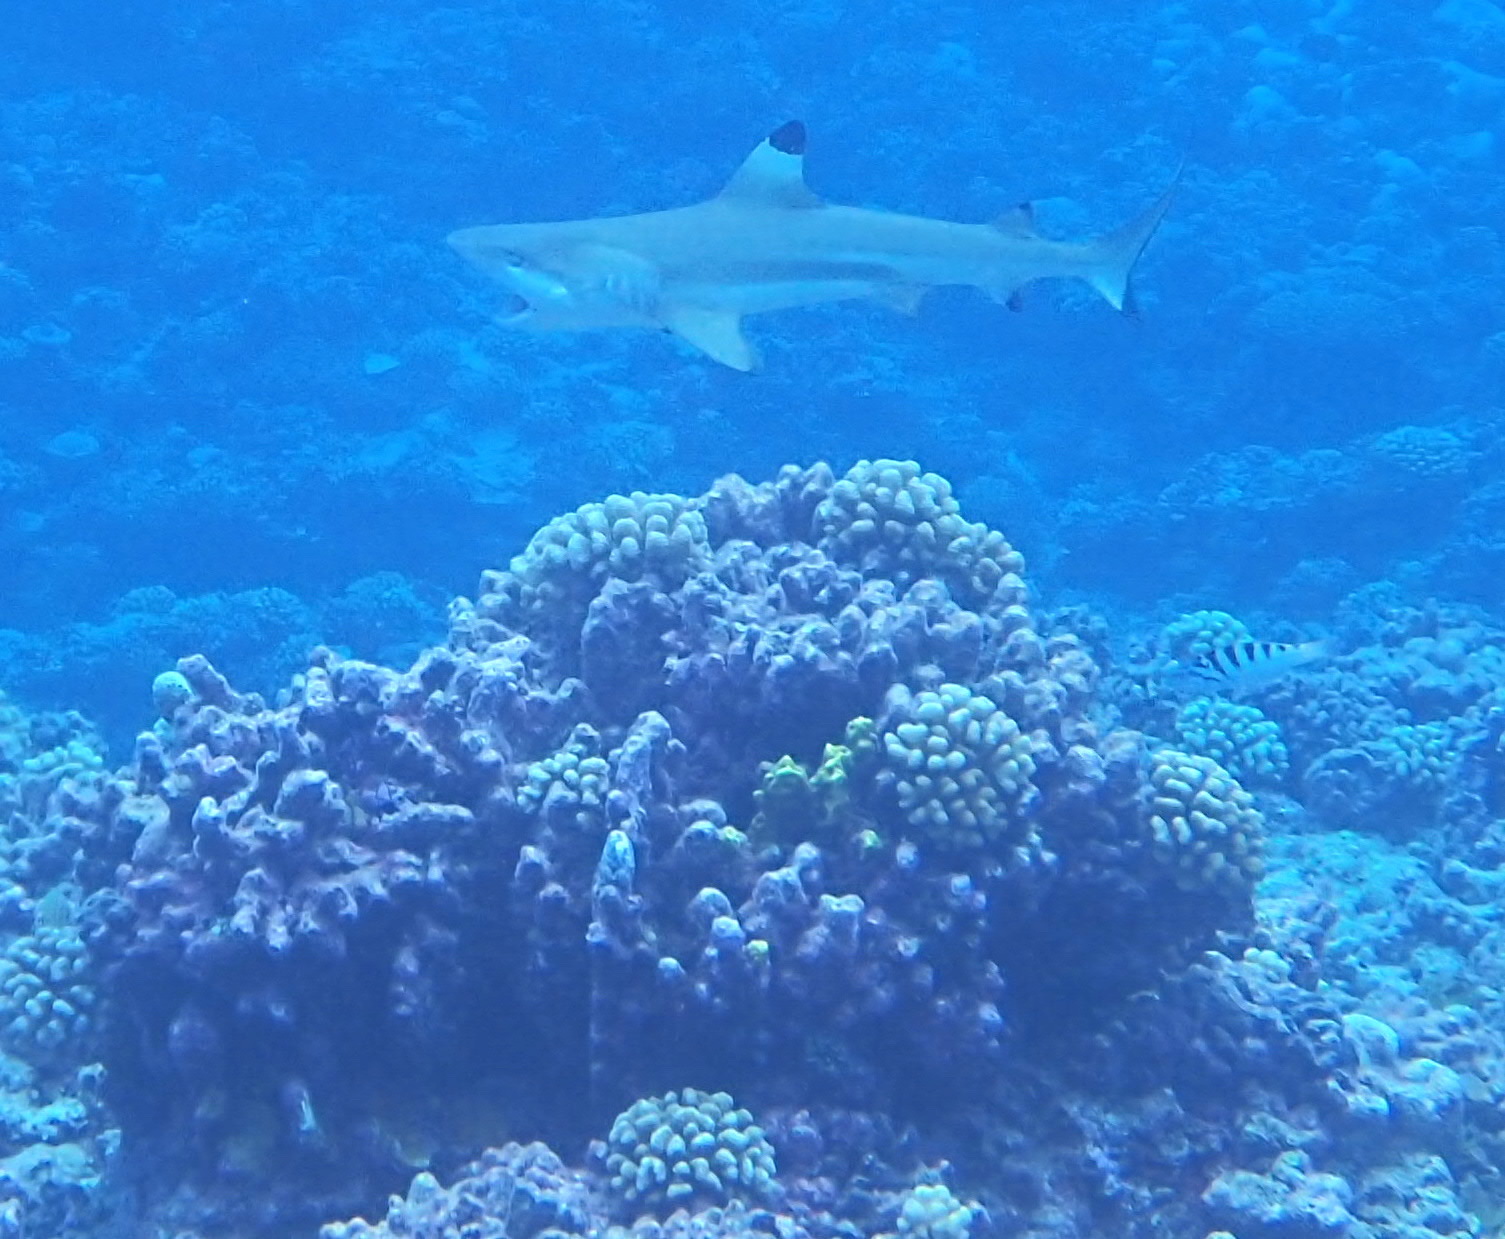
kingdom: Animalia
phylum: Chordata
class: Elasmobranchii
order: Carcharhiniformes
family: Carcharhinidae
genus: Carcharhinus
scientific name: Carcharhinus melanopterus
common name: Blacktip reef shark
